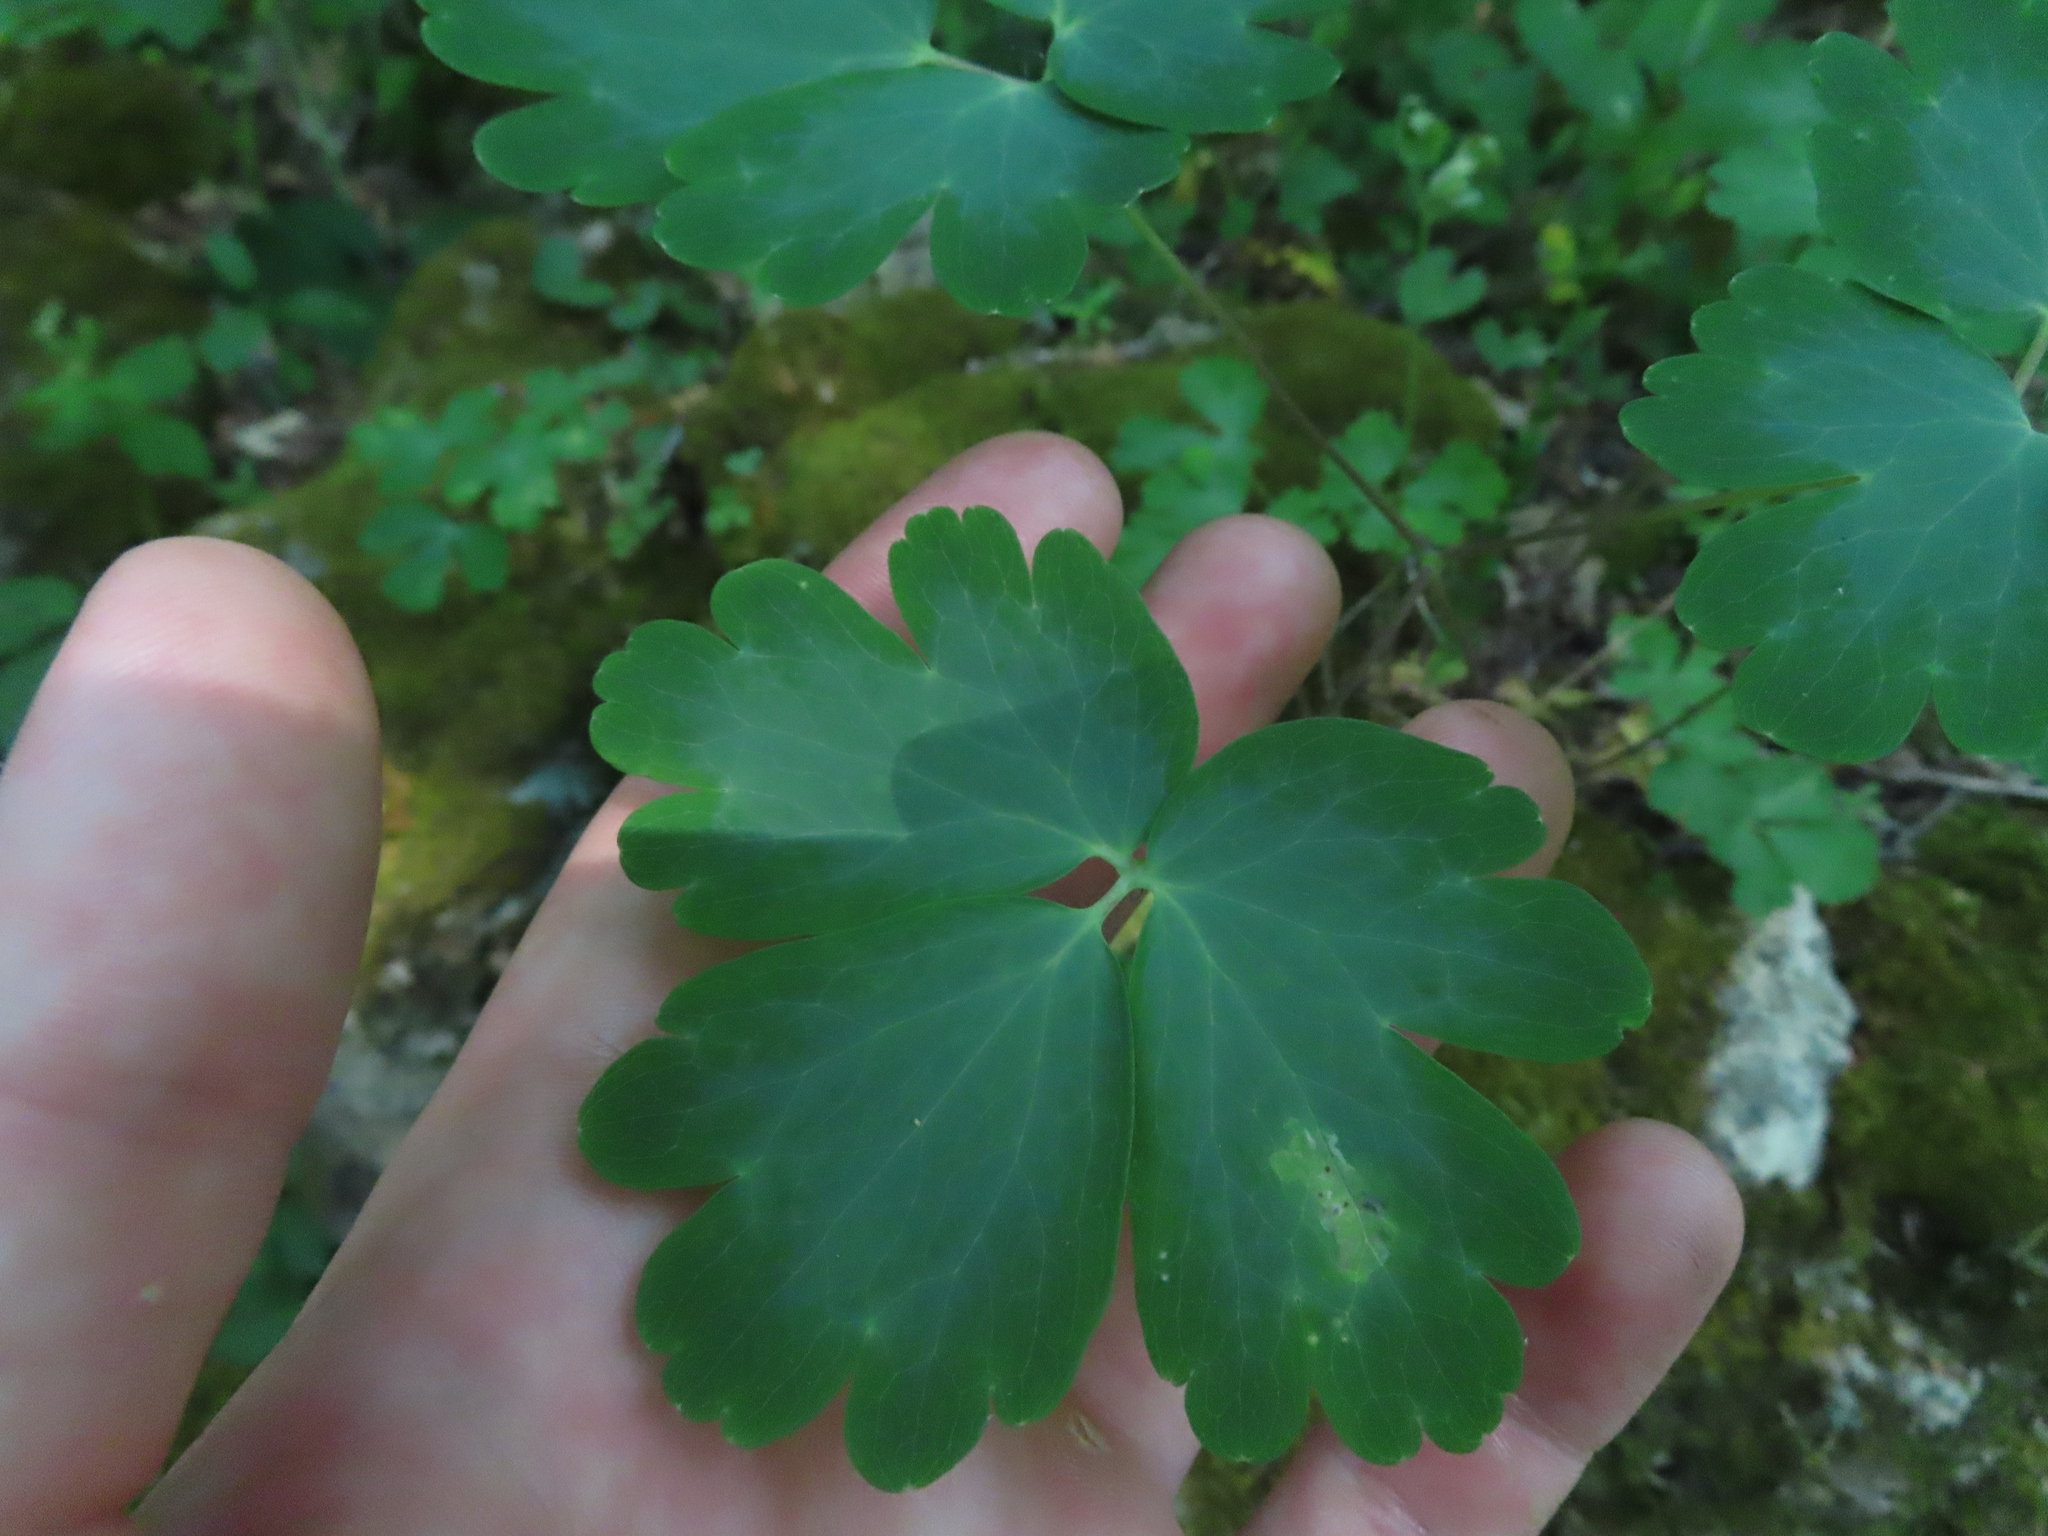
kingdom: Plantae
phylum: Tracheophyta
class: Magnoliopsida
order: Ranunculales
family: Ranunculaceae
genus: Aquilegia
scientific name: Aquilegia canadensis
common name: American columbine
